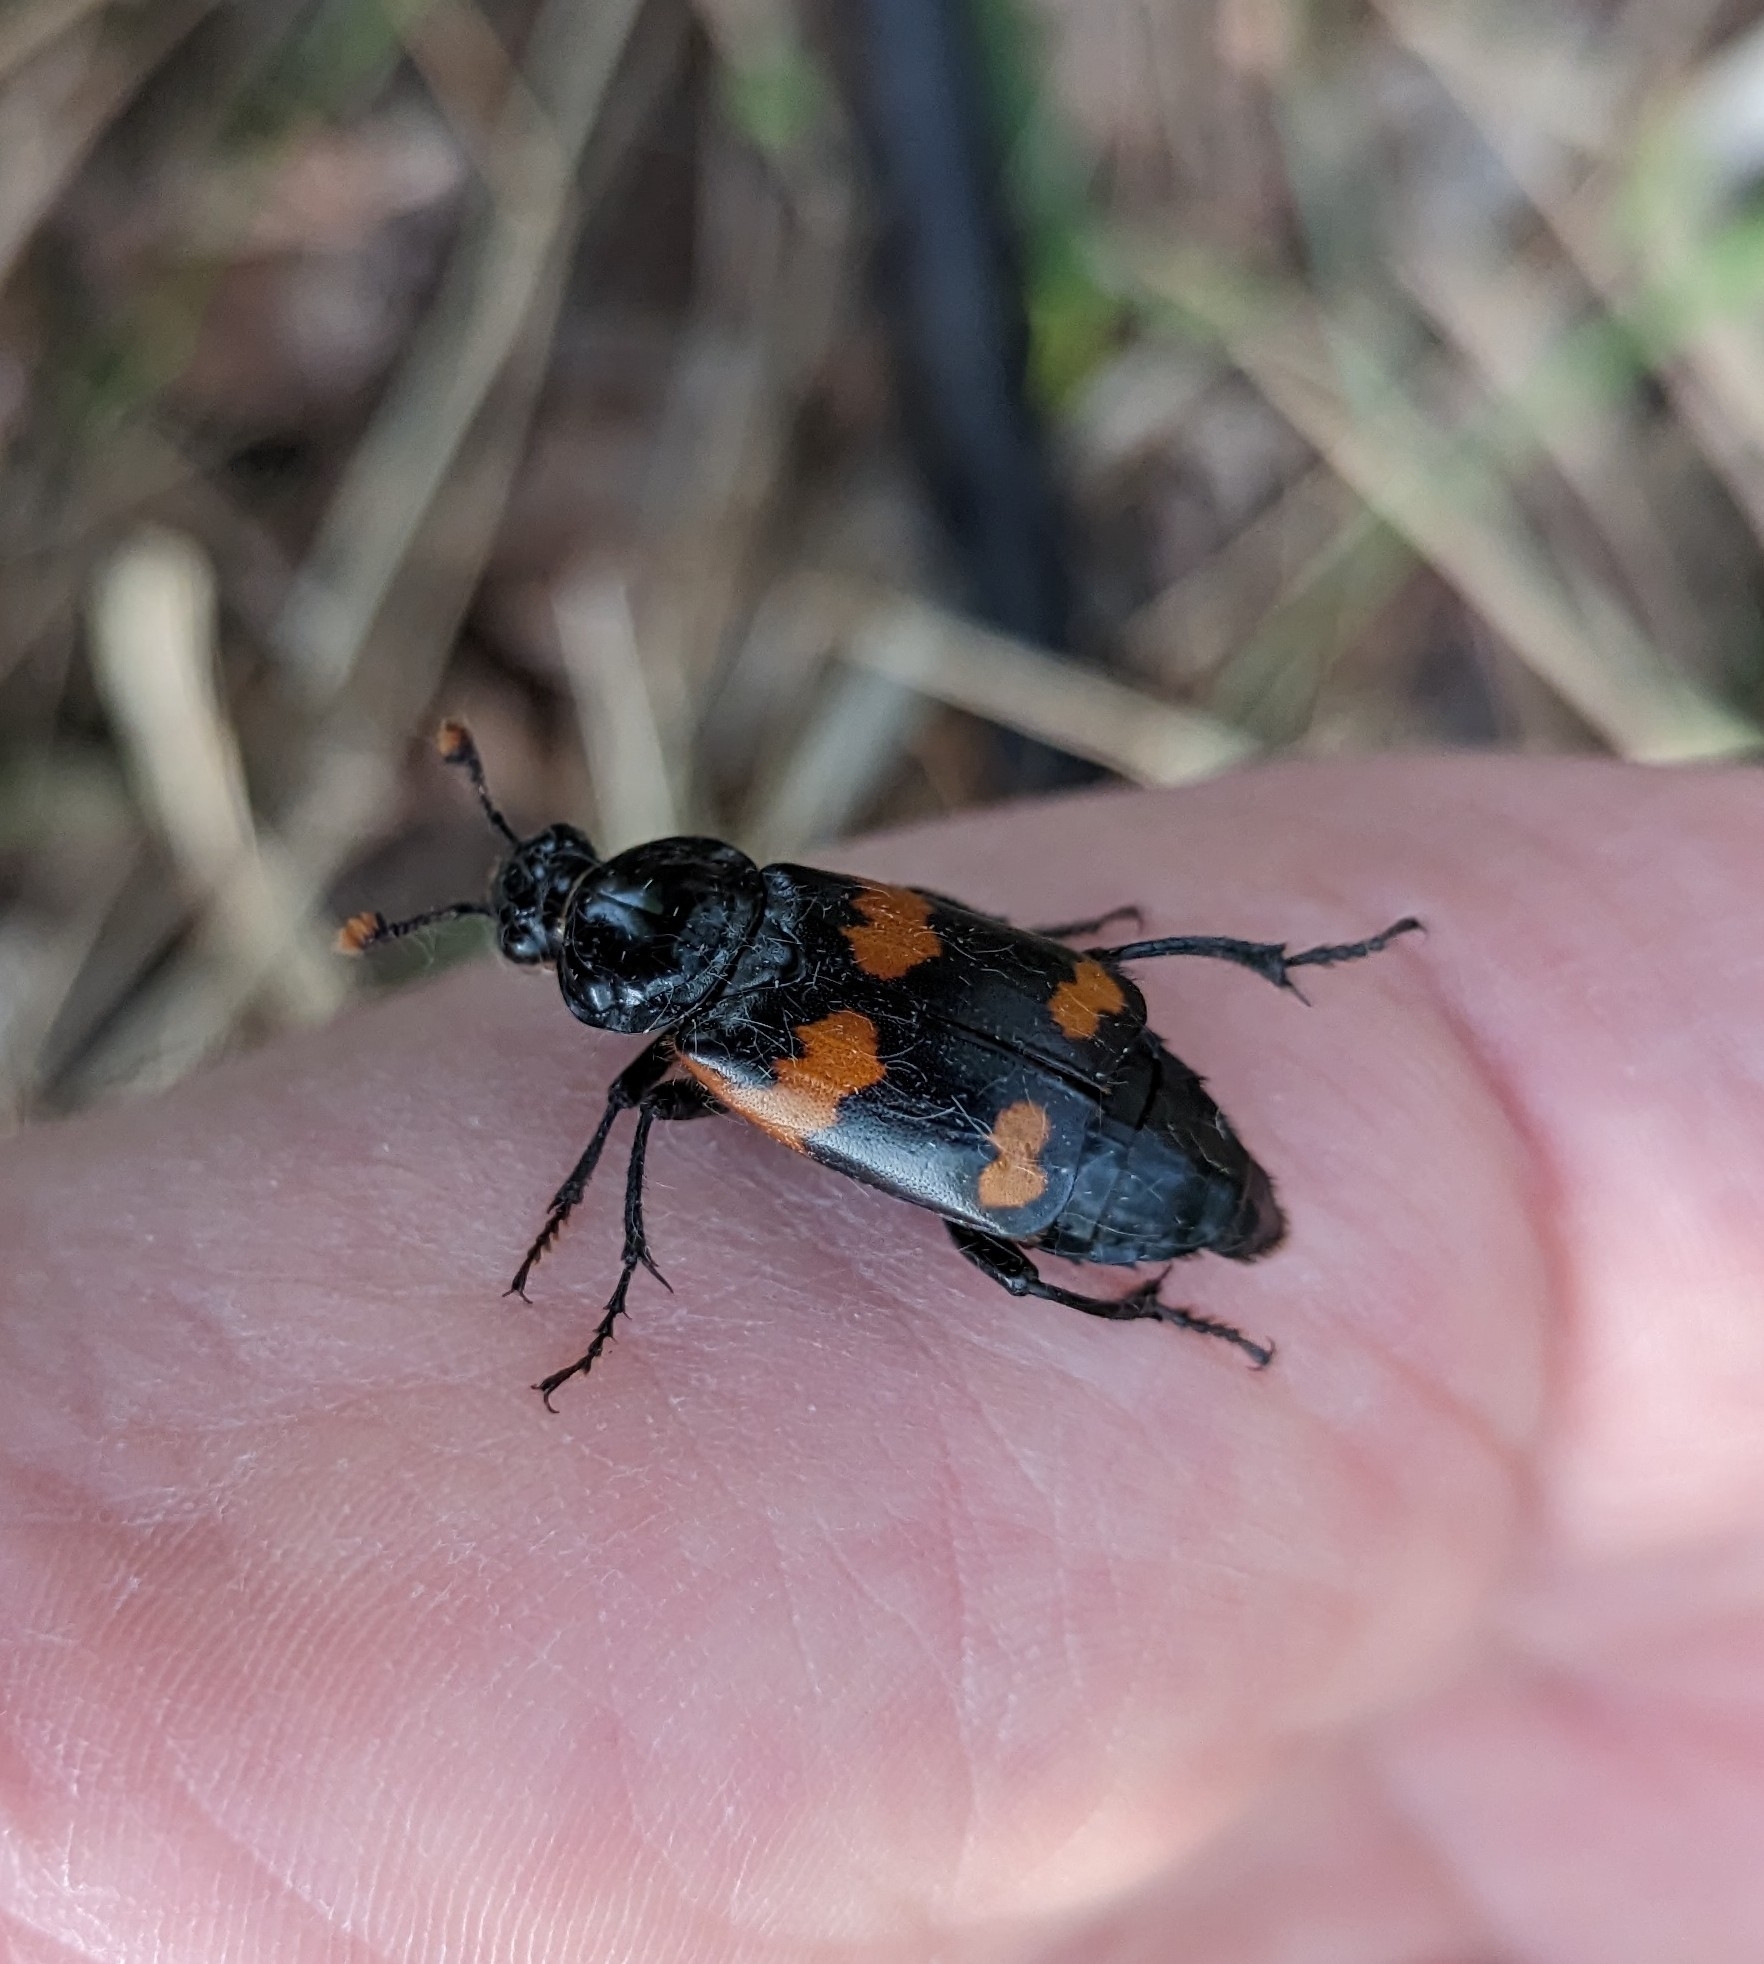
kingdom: Animalia
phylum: Arthropoda
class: Insecta
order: Coleoptera
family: Staphylinidae
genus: Nicrophorus
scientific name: Nicrophorus sayi
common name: Say's burying beetle
